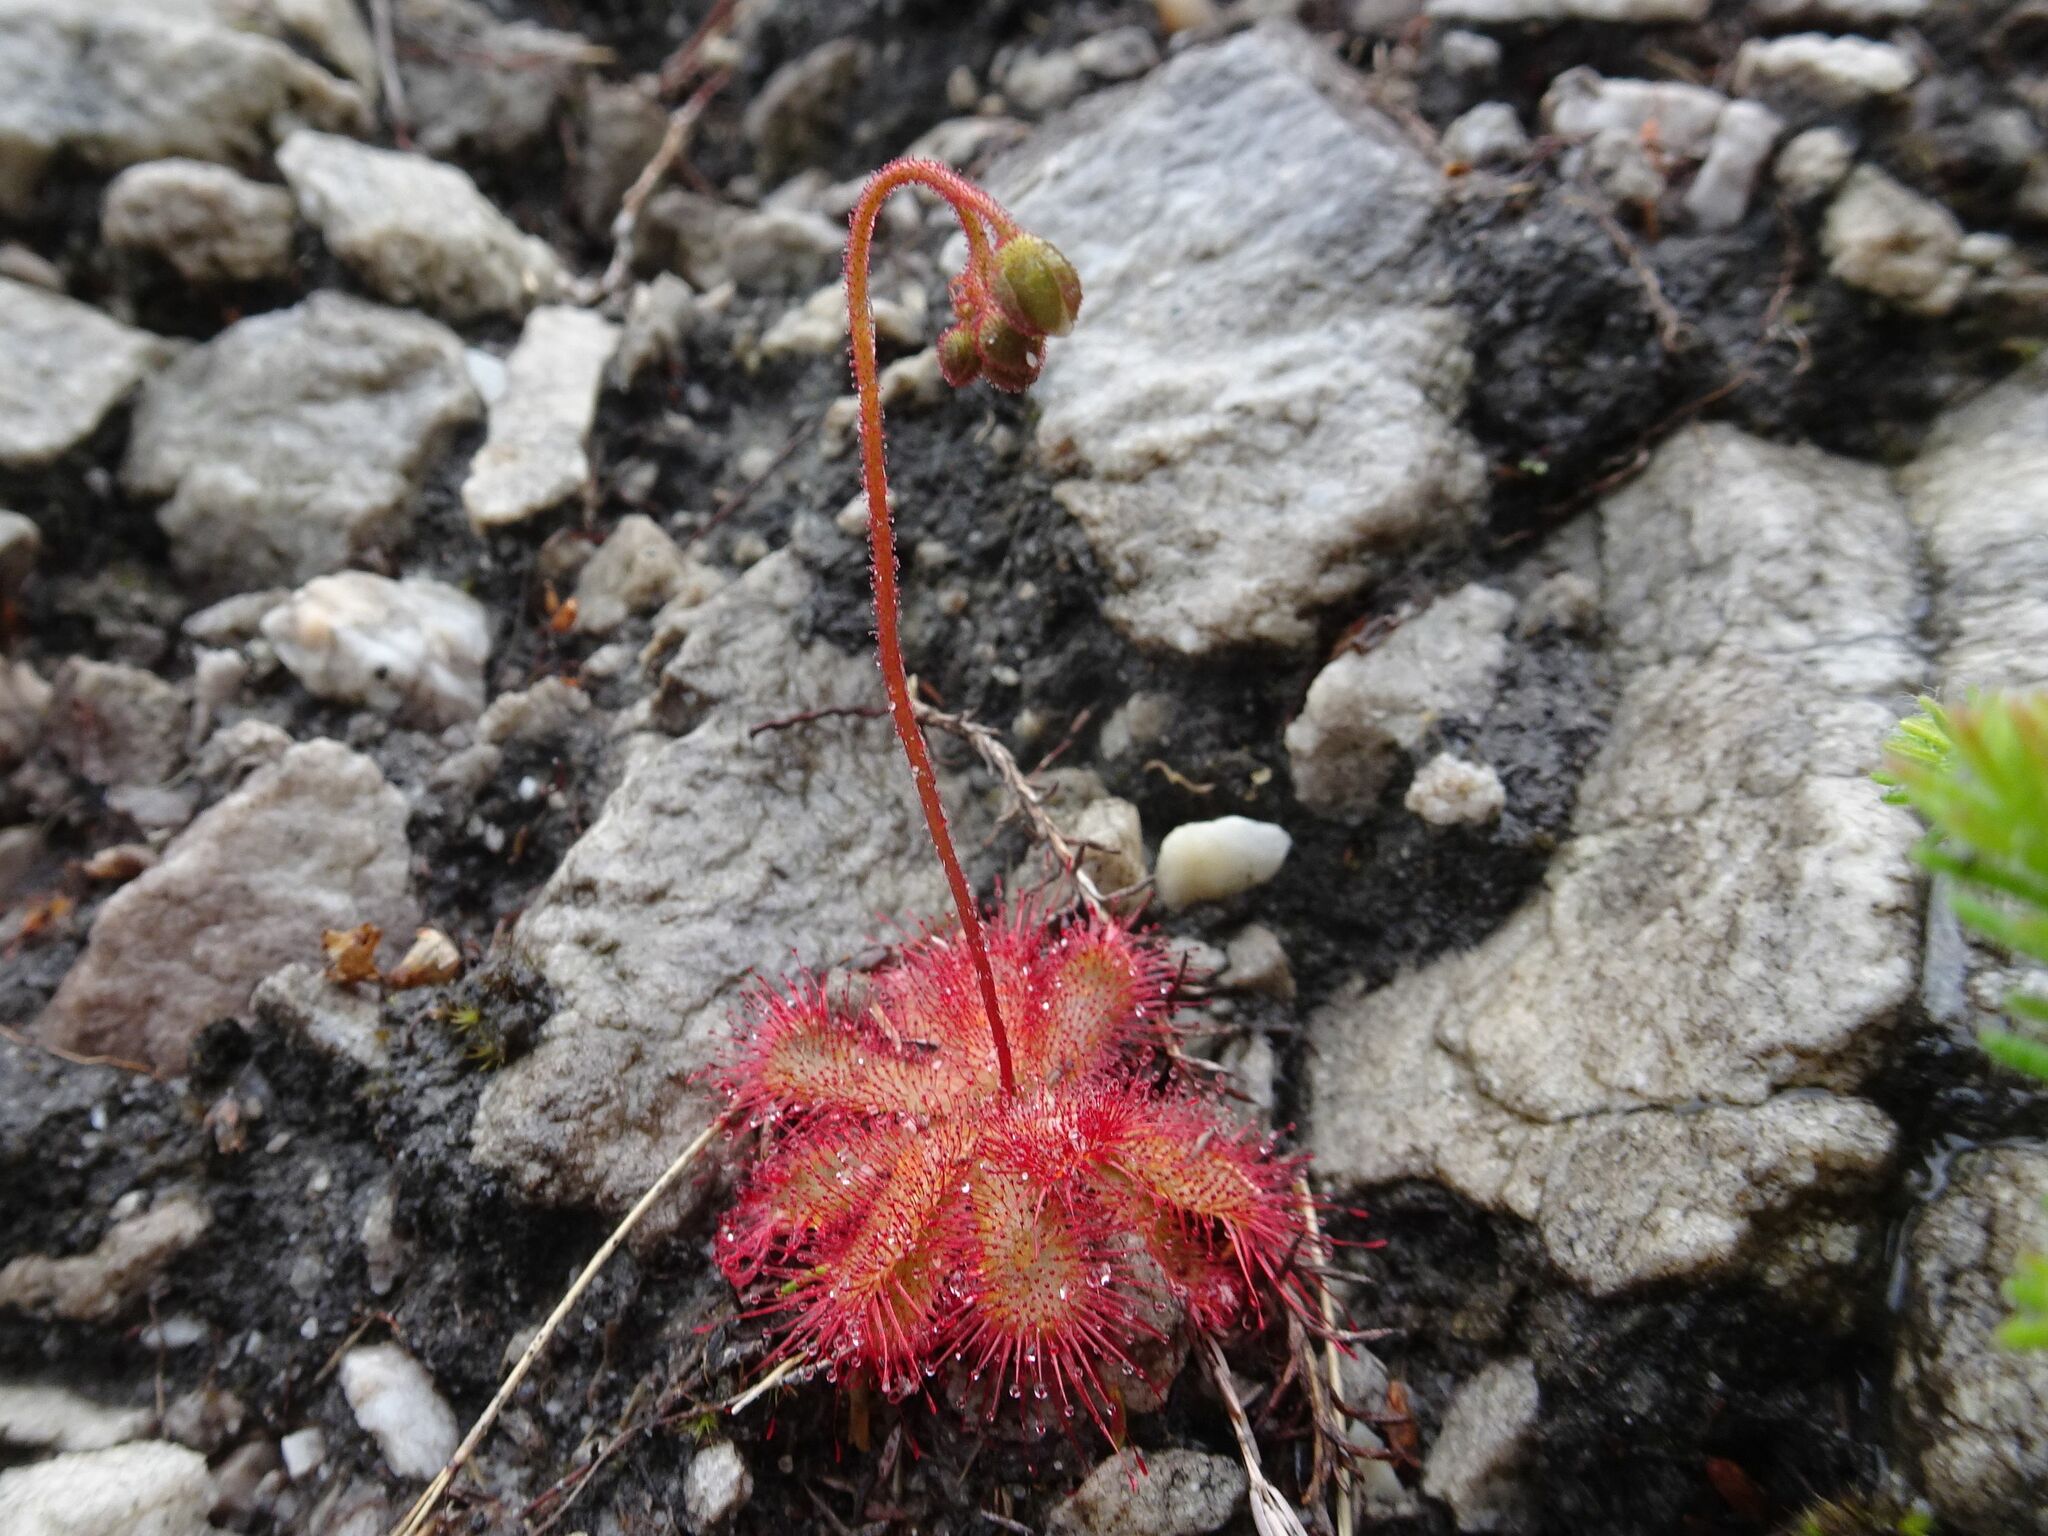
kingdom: Plantae
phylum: Tracheophyta
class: Magnoliopsida
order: Caryophyllales
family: Droseraceae
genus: Drosera
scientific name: Drosera trinervia
